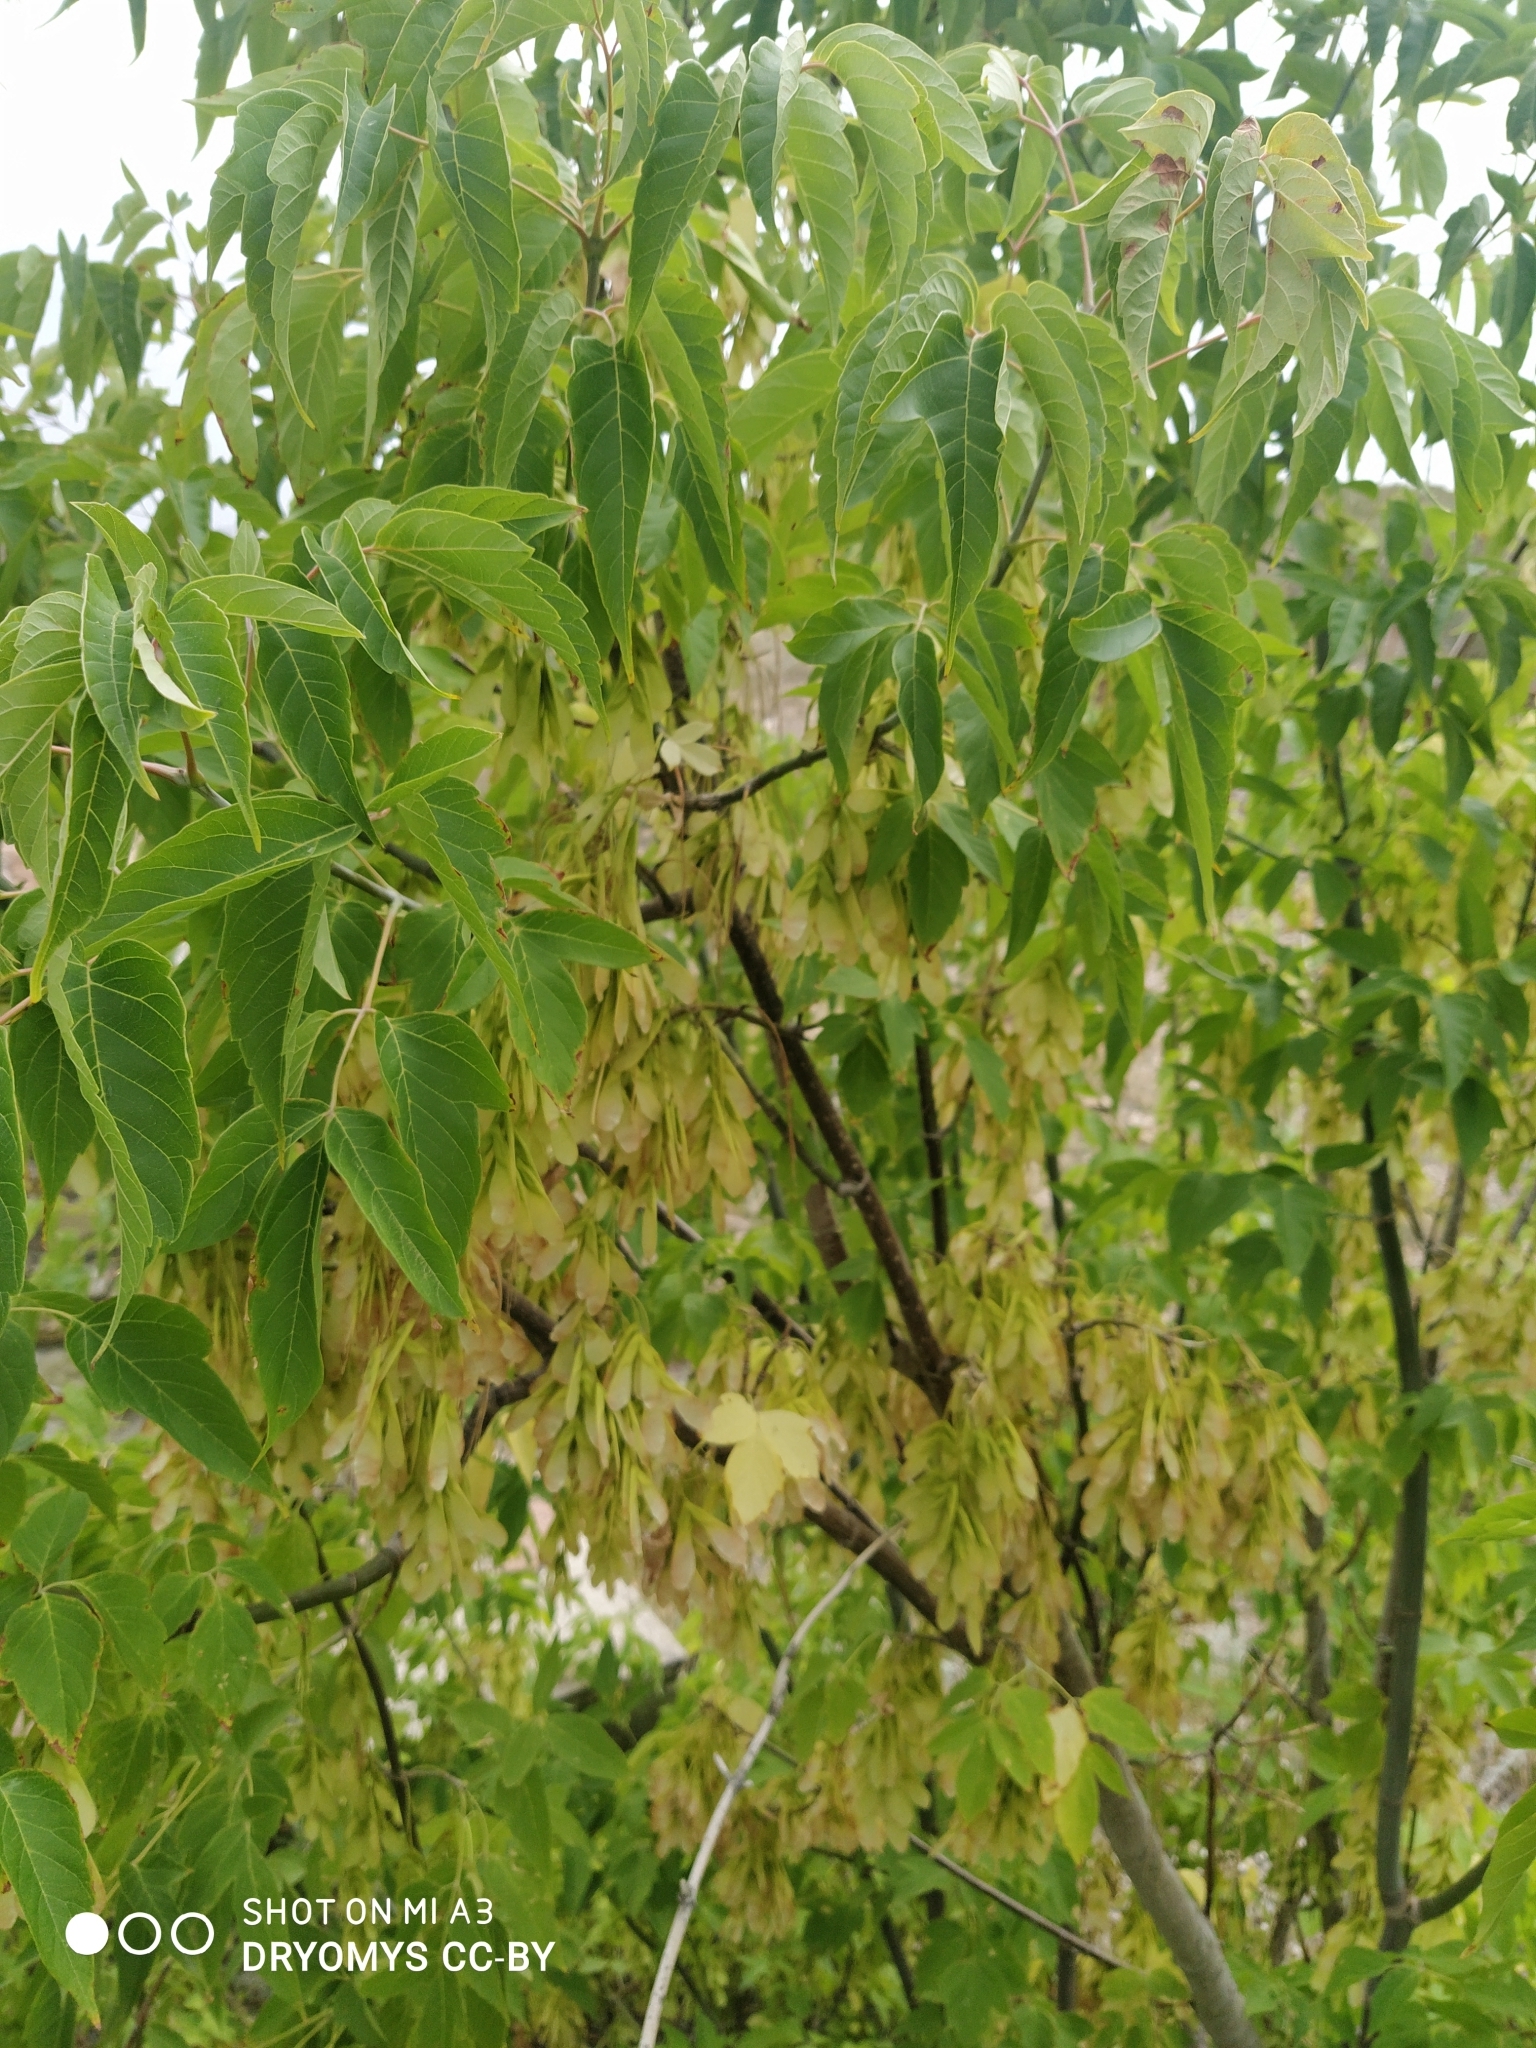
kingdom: Plantae
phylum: Tracheophyta
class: Magnoliopsida
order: Sapindales
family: Sapindaceae
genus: Acer
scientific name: Acer negundo
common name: Ashleaf maple
